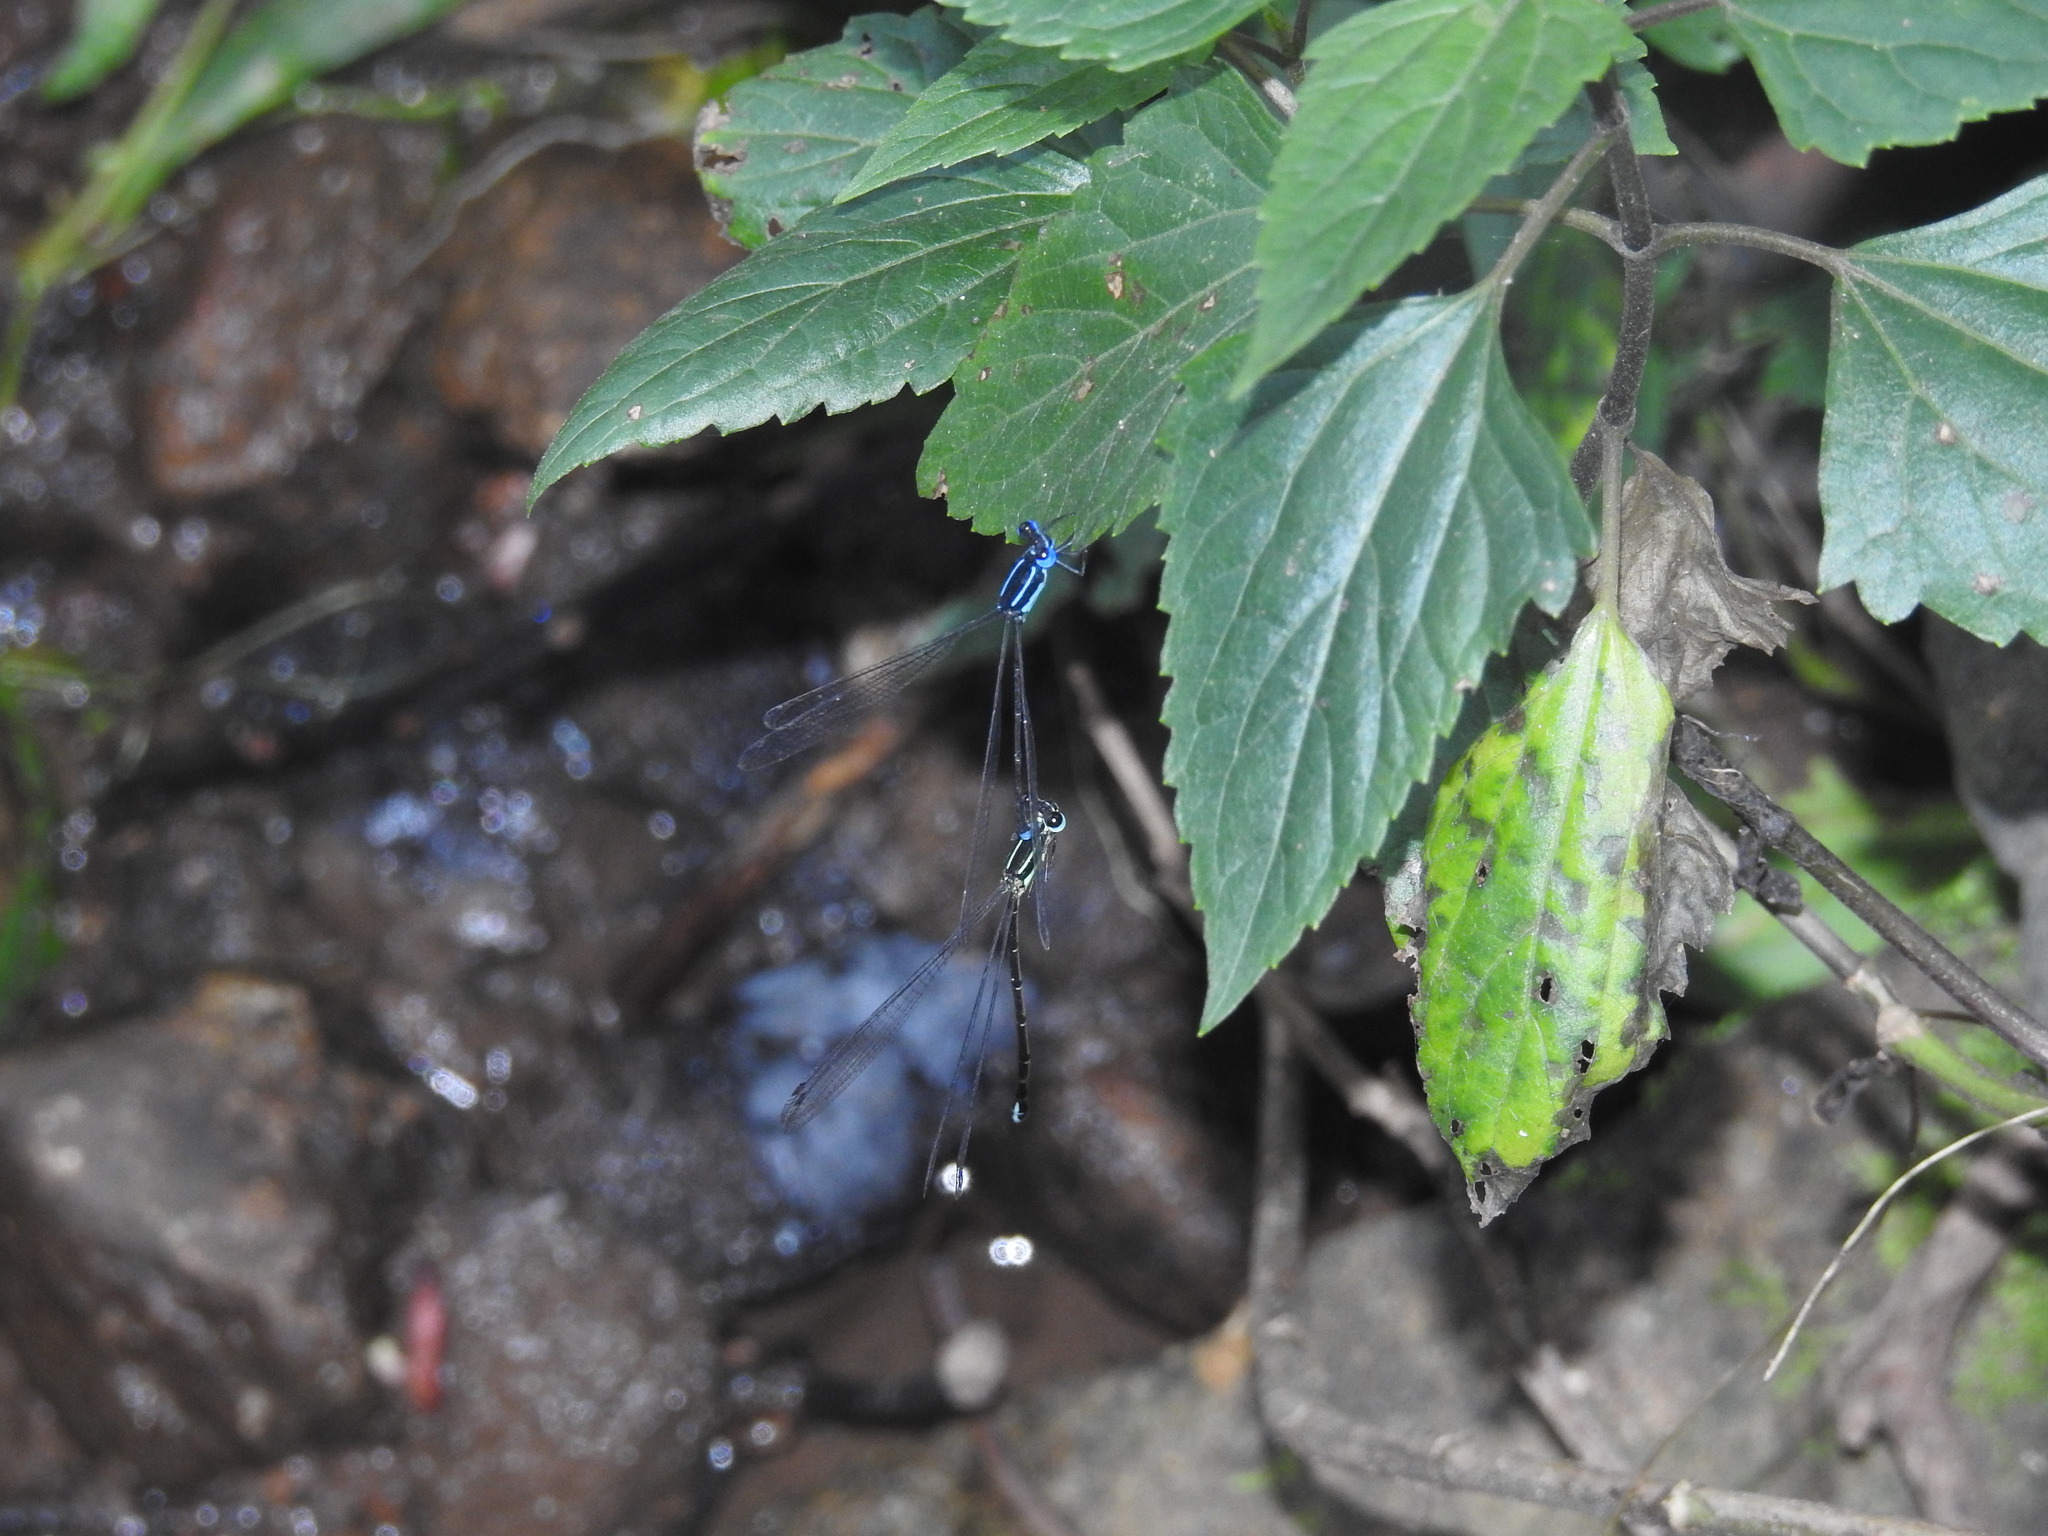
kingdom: Animalia
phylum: Arthropoda
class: Insecta
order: Odonata
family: Platycnemididae
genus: Caconeura
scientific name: Caconeura ramburi
